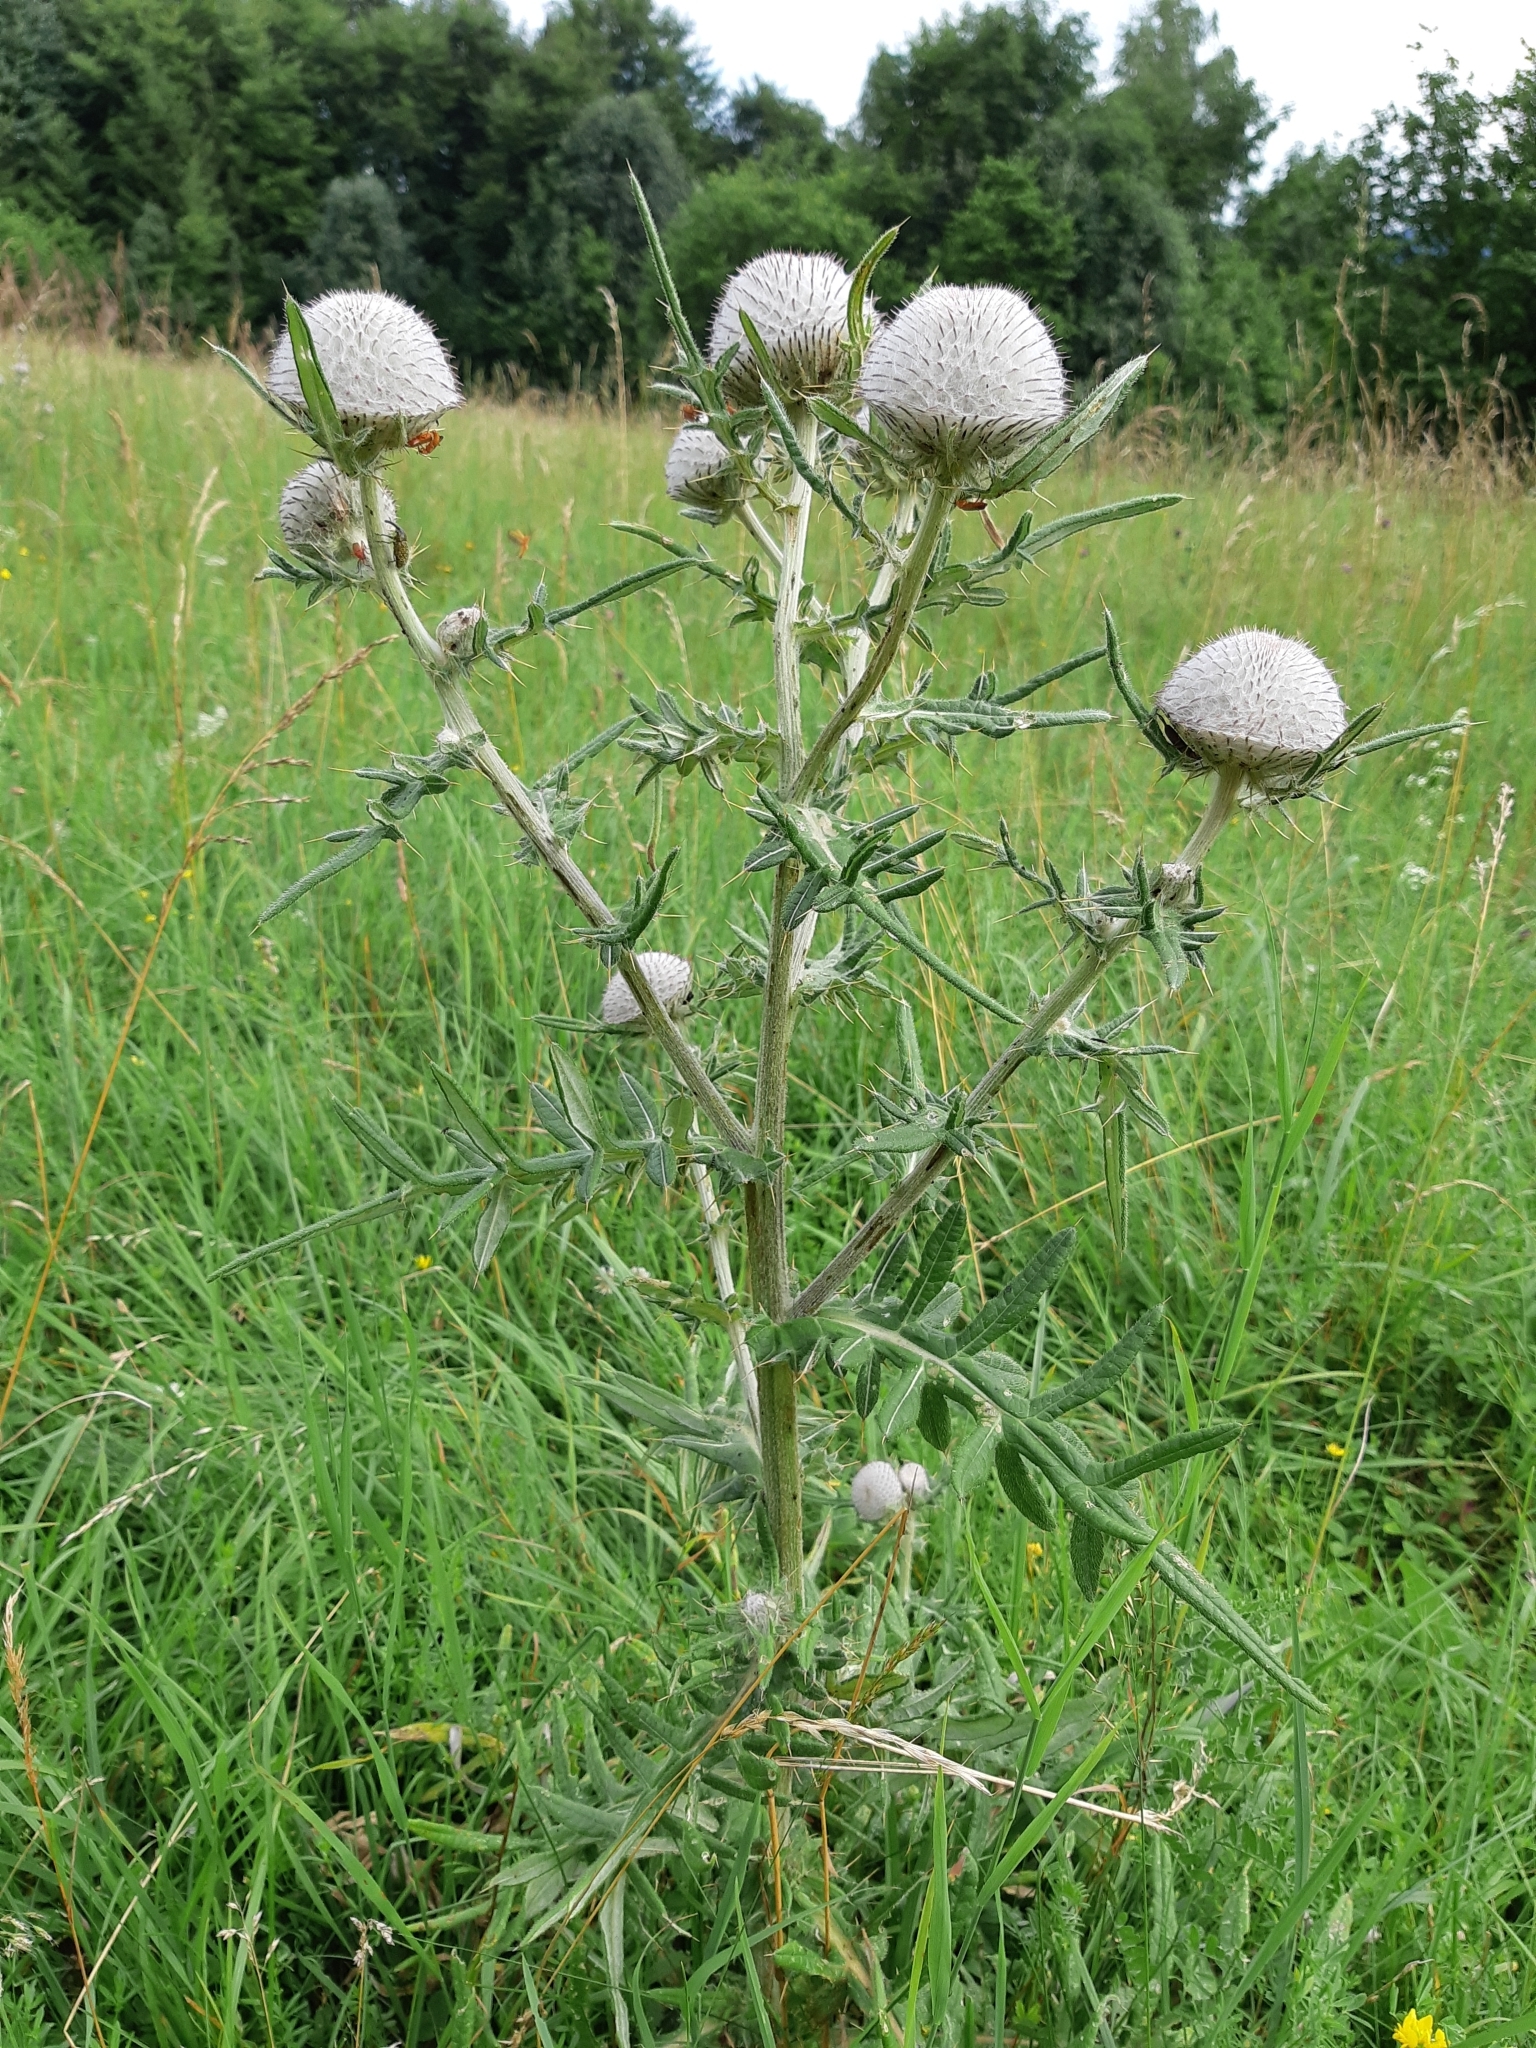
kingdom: Plantae
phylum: Tracheophyta
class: Magnoliopsida
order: Asterales
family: Asteraceae
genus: Lophiolepis
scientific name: Lophiolepis eriophora
